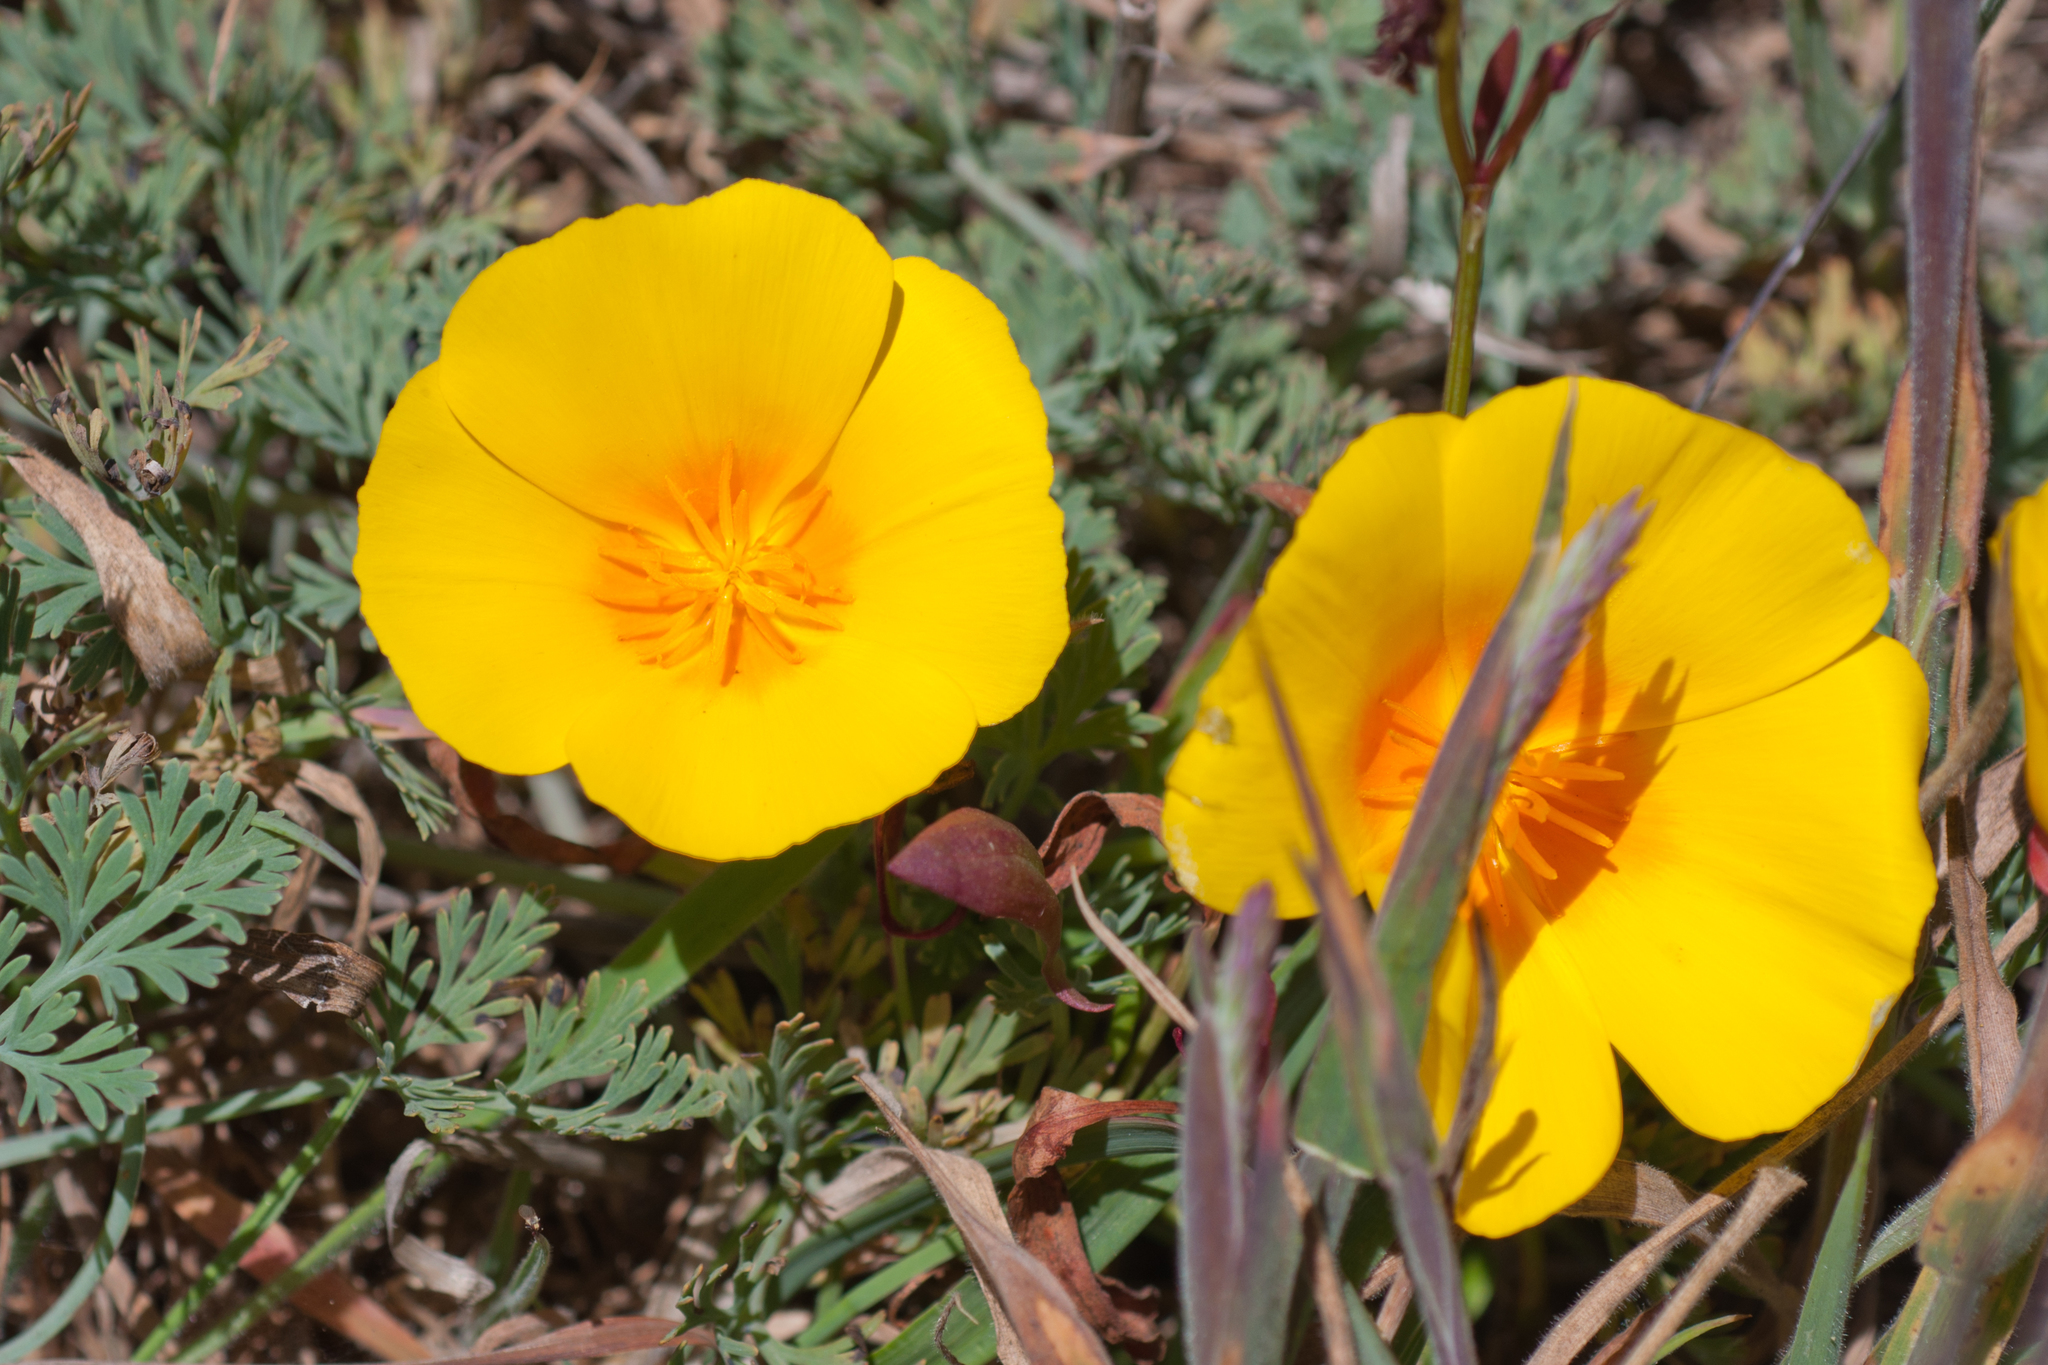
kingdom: Plantae
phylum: Tracheophyta
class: Magnoliopsida
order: Ranunculales
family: Papaveraceae
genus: Eschscholzia
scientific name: Eschscholzia californica
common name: California poppy
